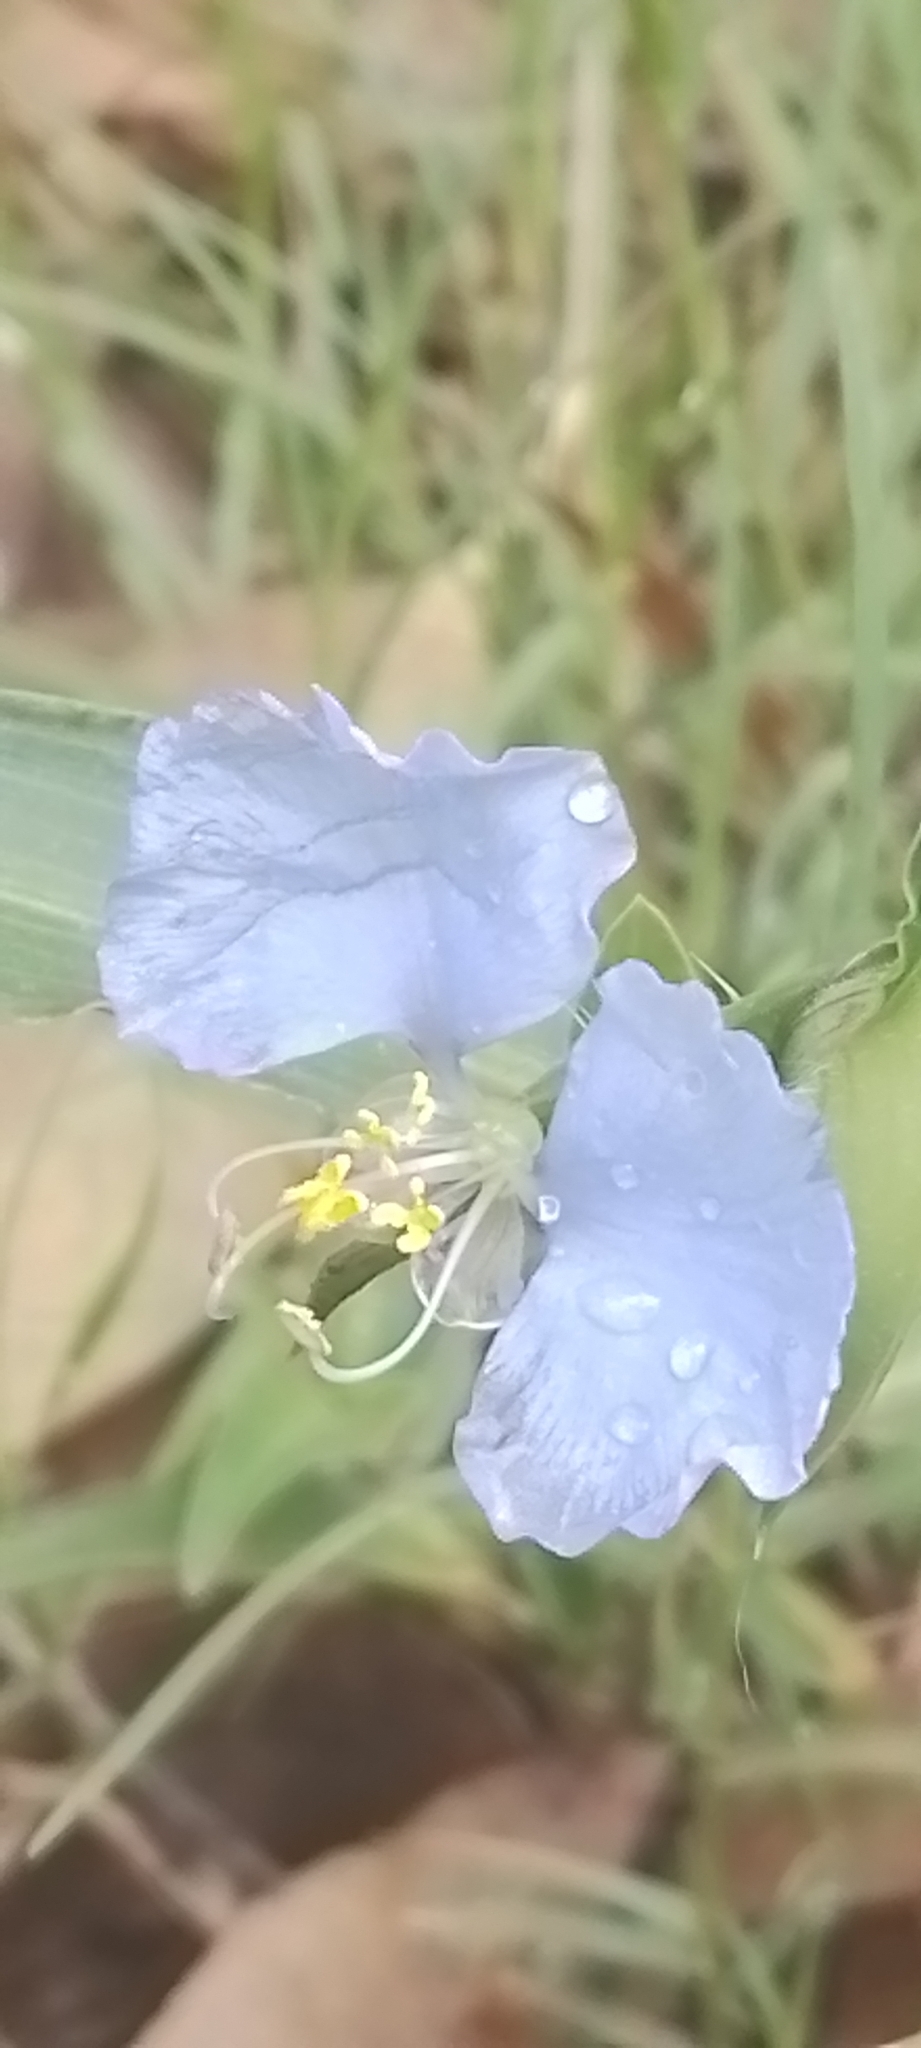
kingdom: Plantae
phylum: Tracheophyta
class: Liliopsida
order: Commelinales
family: Commelinaceae
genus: Commelina
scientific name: Commelina erecta
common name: Blousel blommetjie
